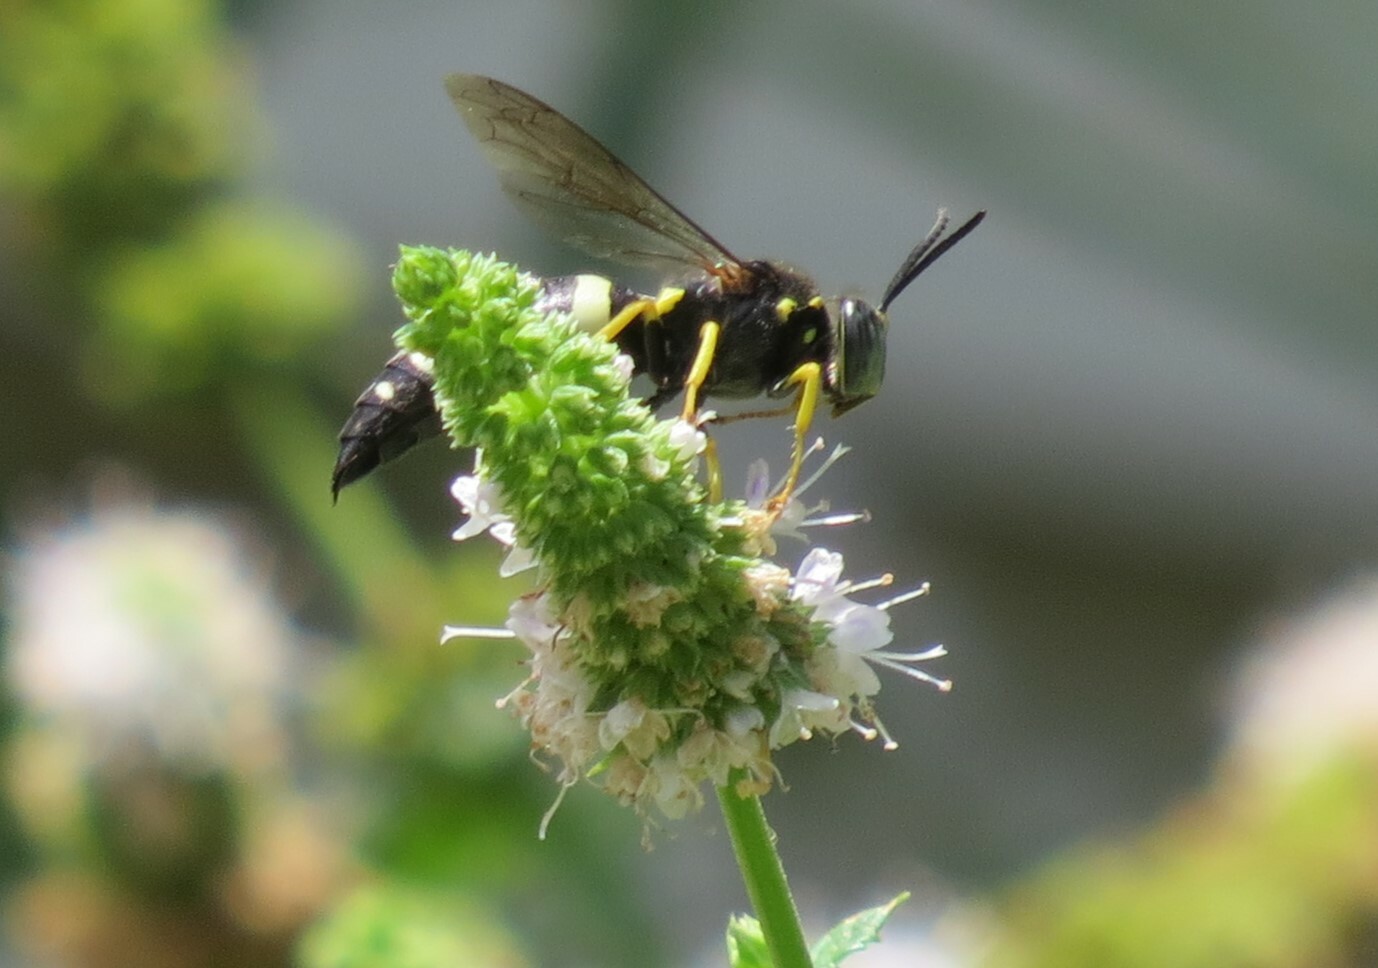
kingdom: Animalia
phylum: Arthropoda
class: Insecta
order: Hymenoptera
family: Crabronidae
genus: Bicyrtes
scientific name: Bicyrtes quadrifasciatus
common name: Four-banded stink bug hunter wasp
